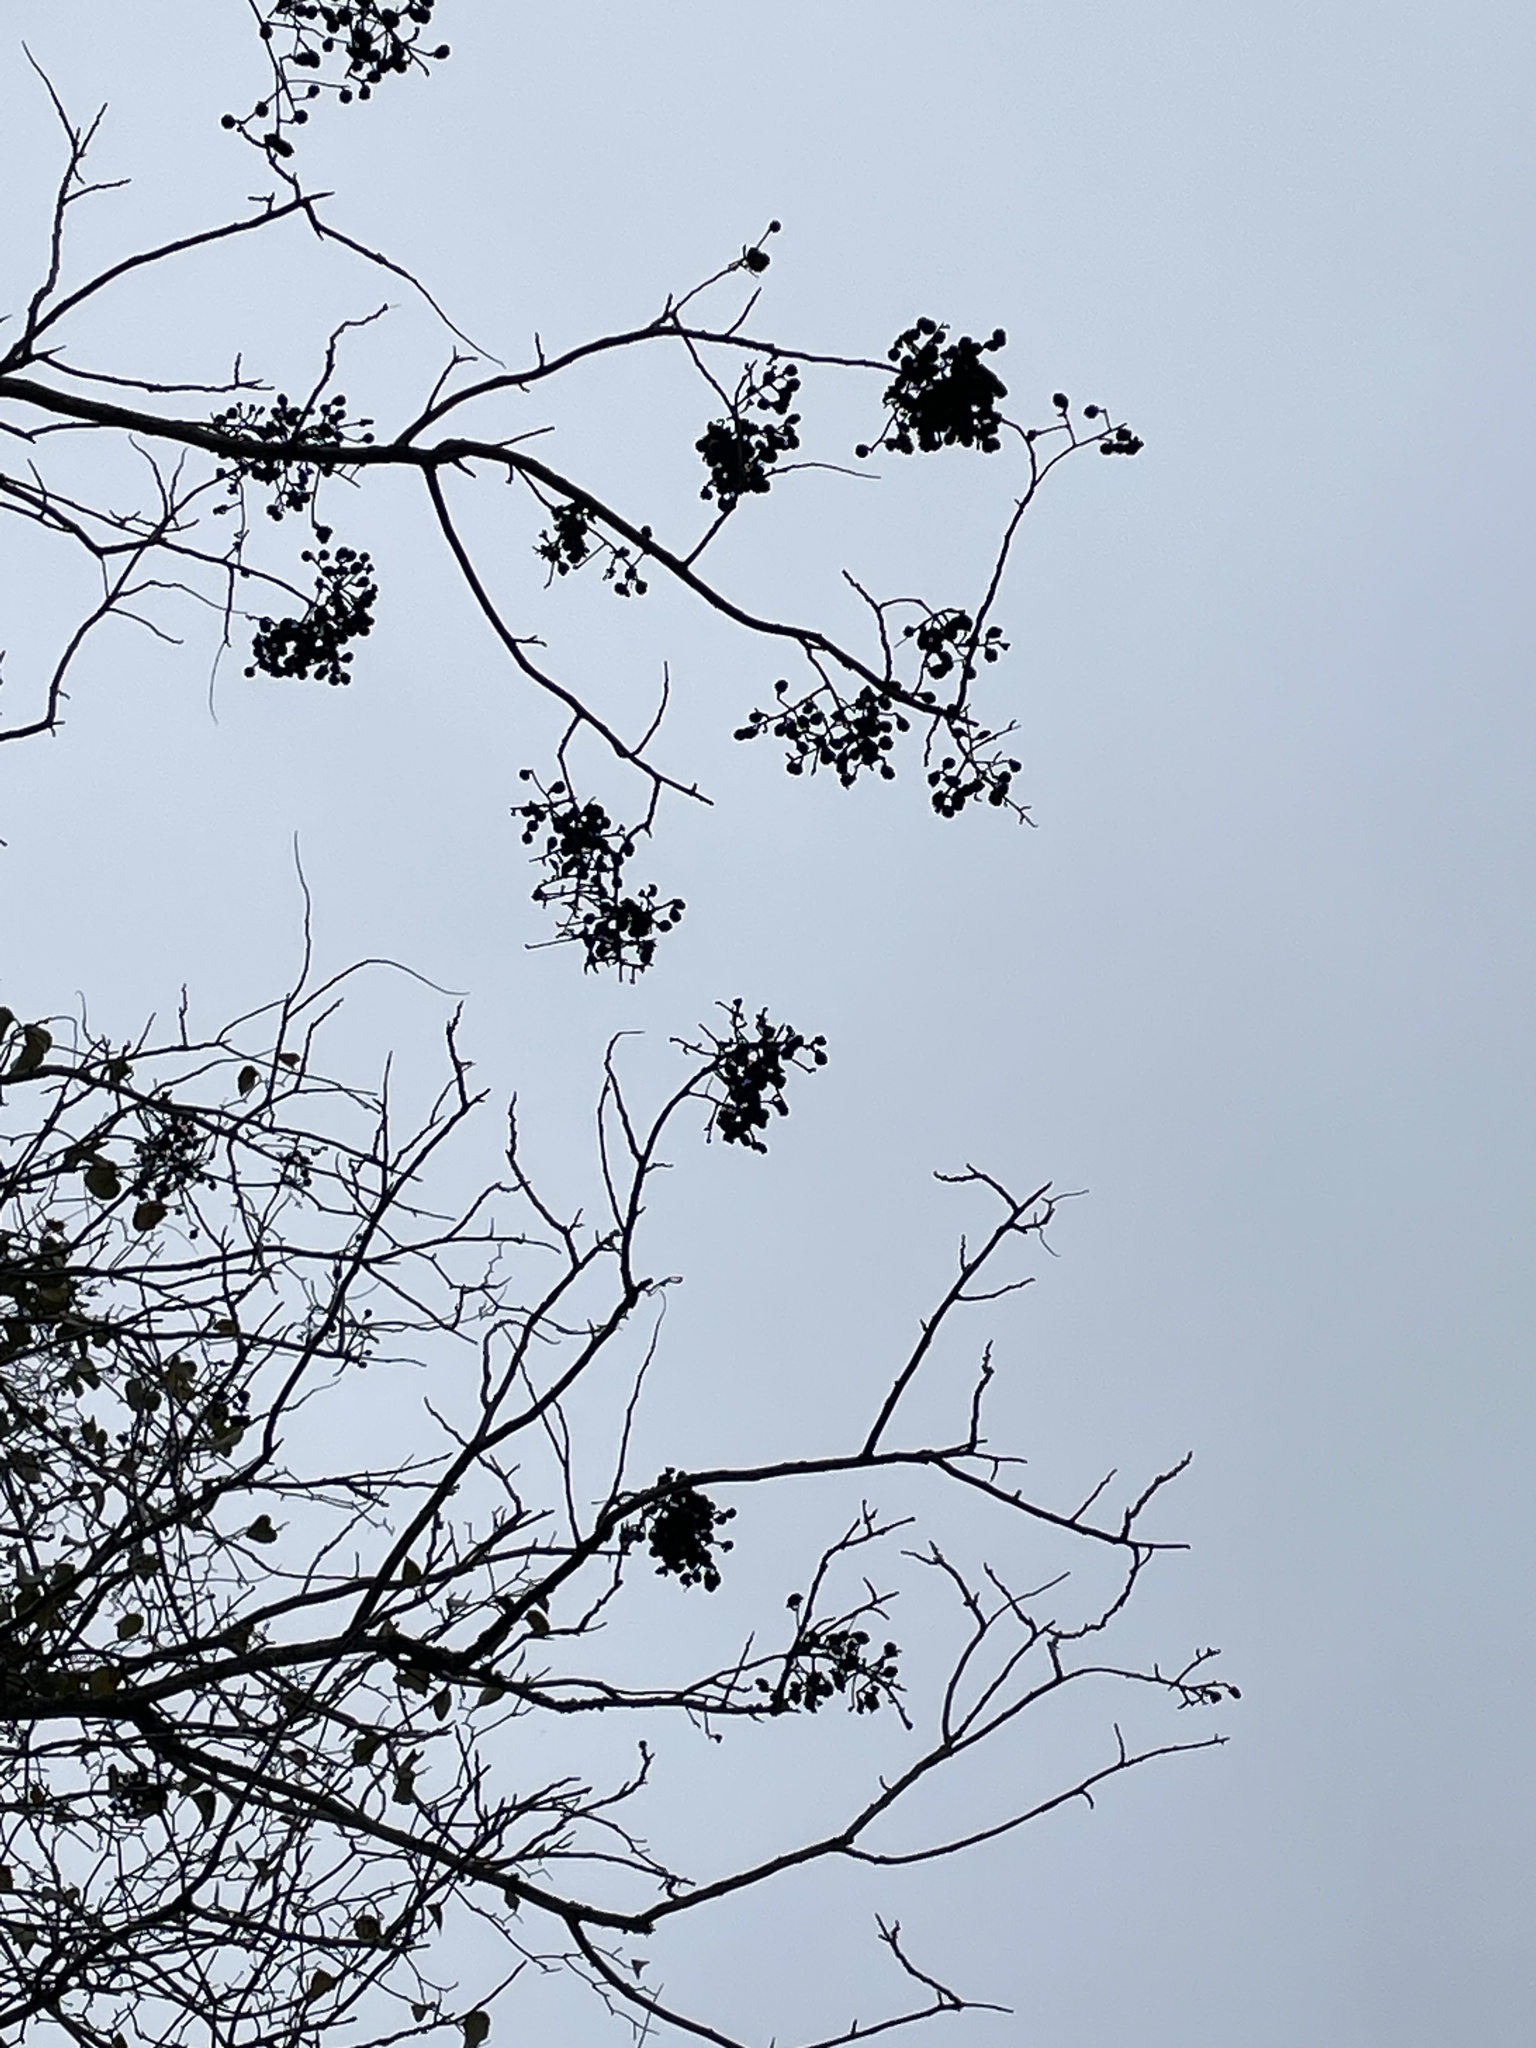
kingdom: Plantae
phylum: Tracheophyta
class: Magnoliopsida
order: Sapindales
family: Sapindaceae
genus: Sapindus
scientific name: Sapindus drummondii
